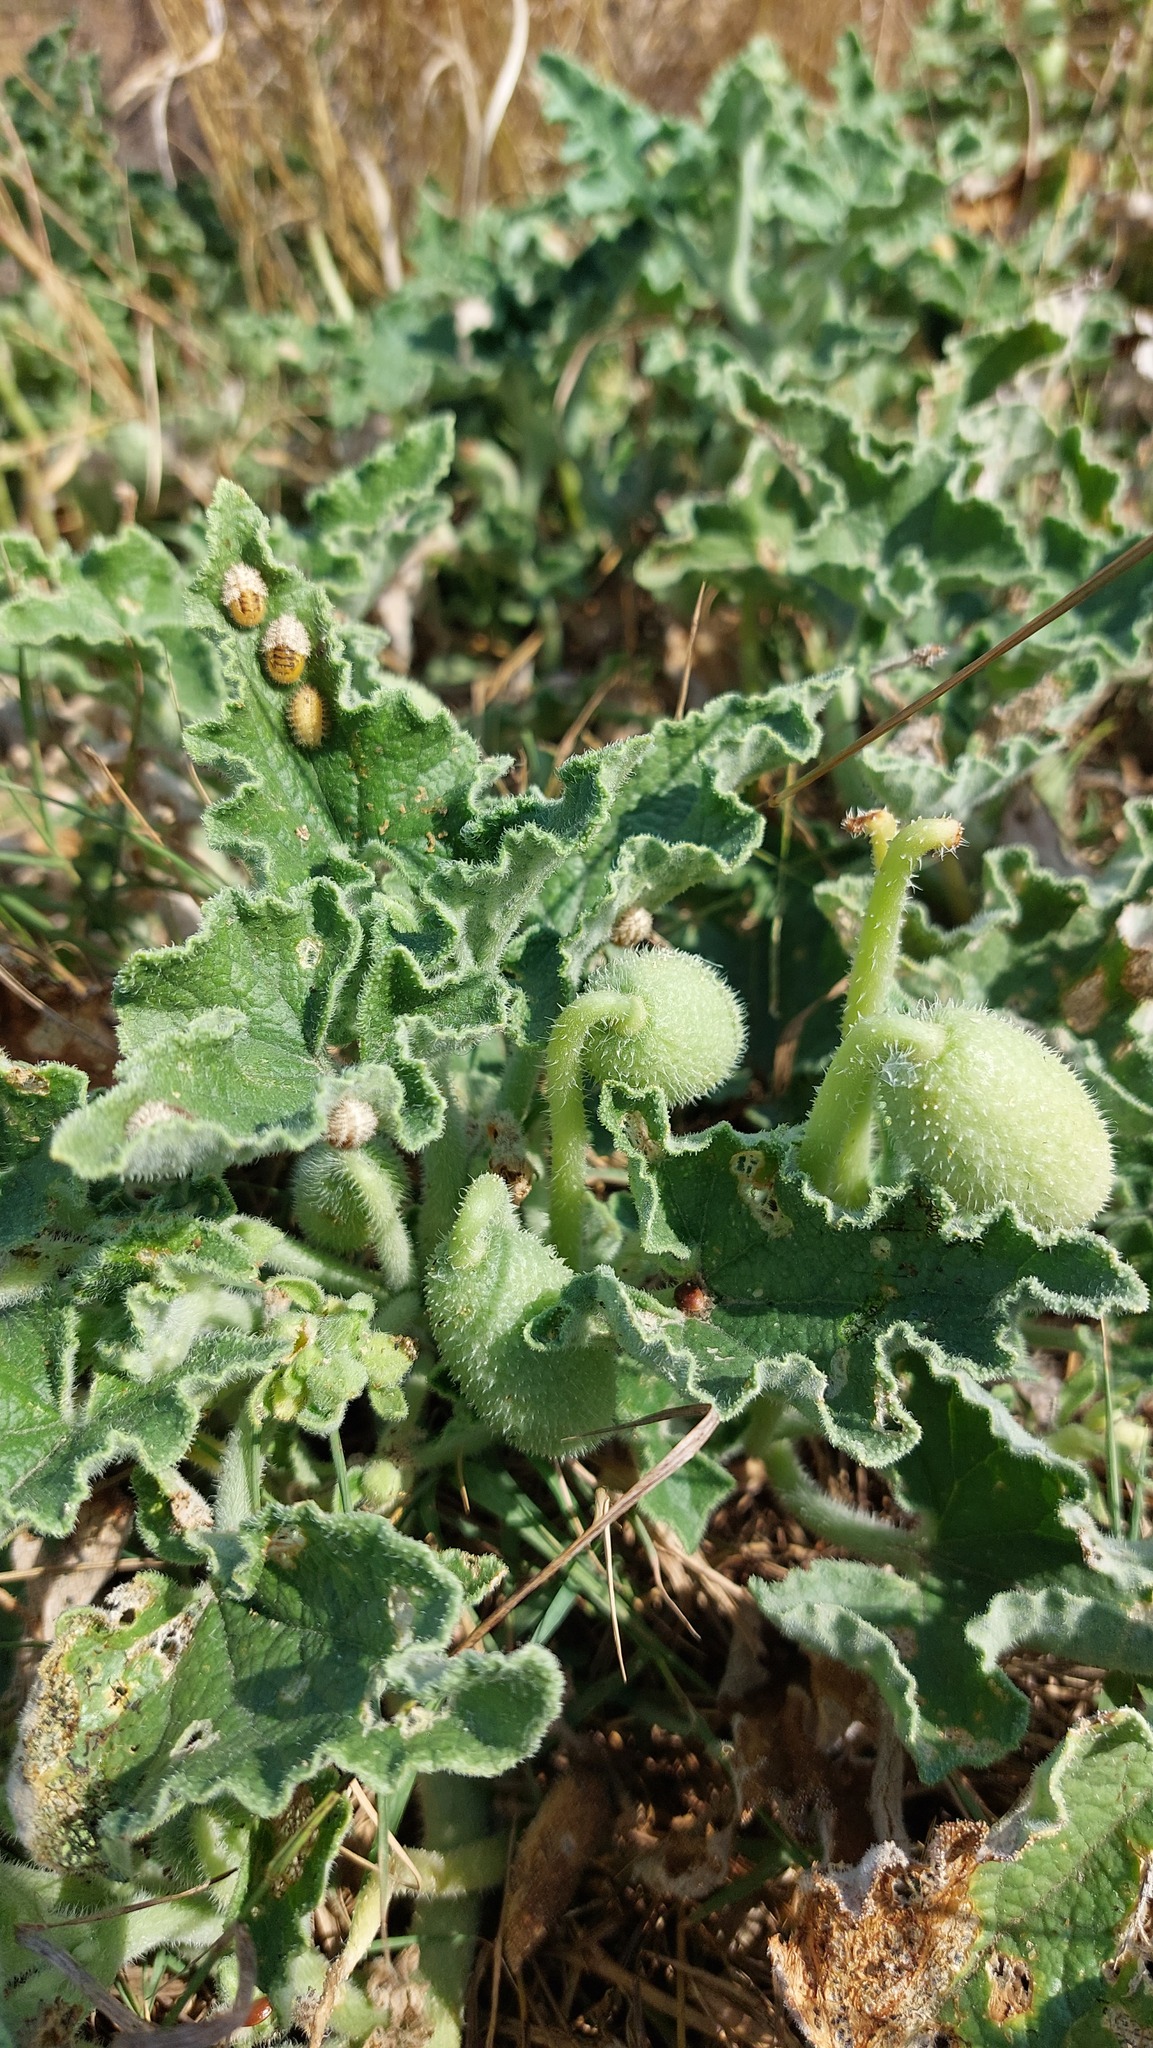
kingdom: Plantae
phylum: Tracheophyta
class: Magnoliopsida
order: Cucurbitales
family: Cucurbitaceae
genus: Ecballium
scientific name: Ecballium elaterium
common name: Squirting cucumber
